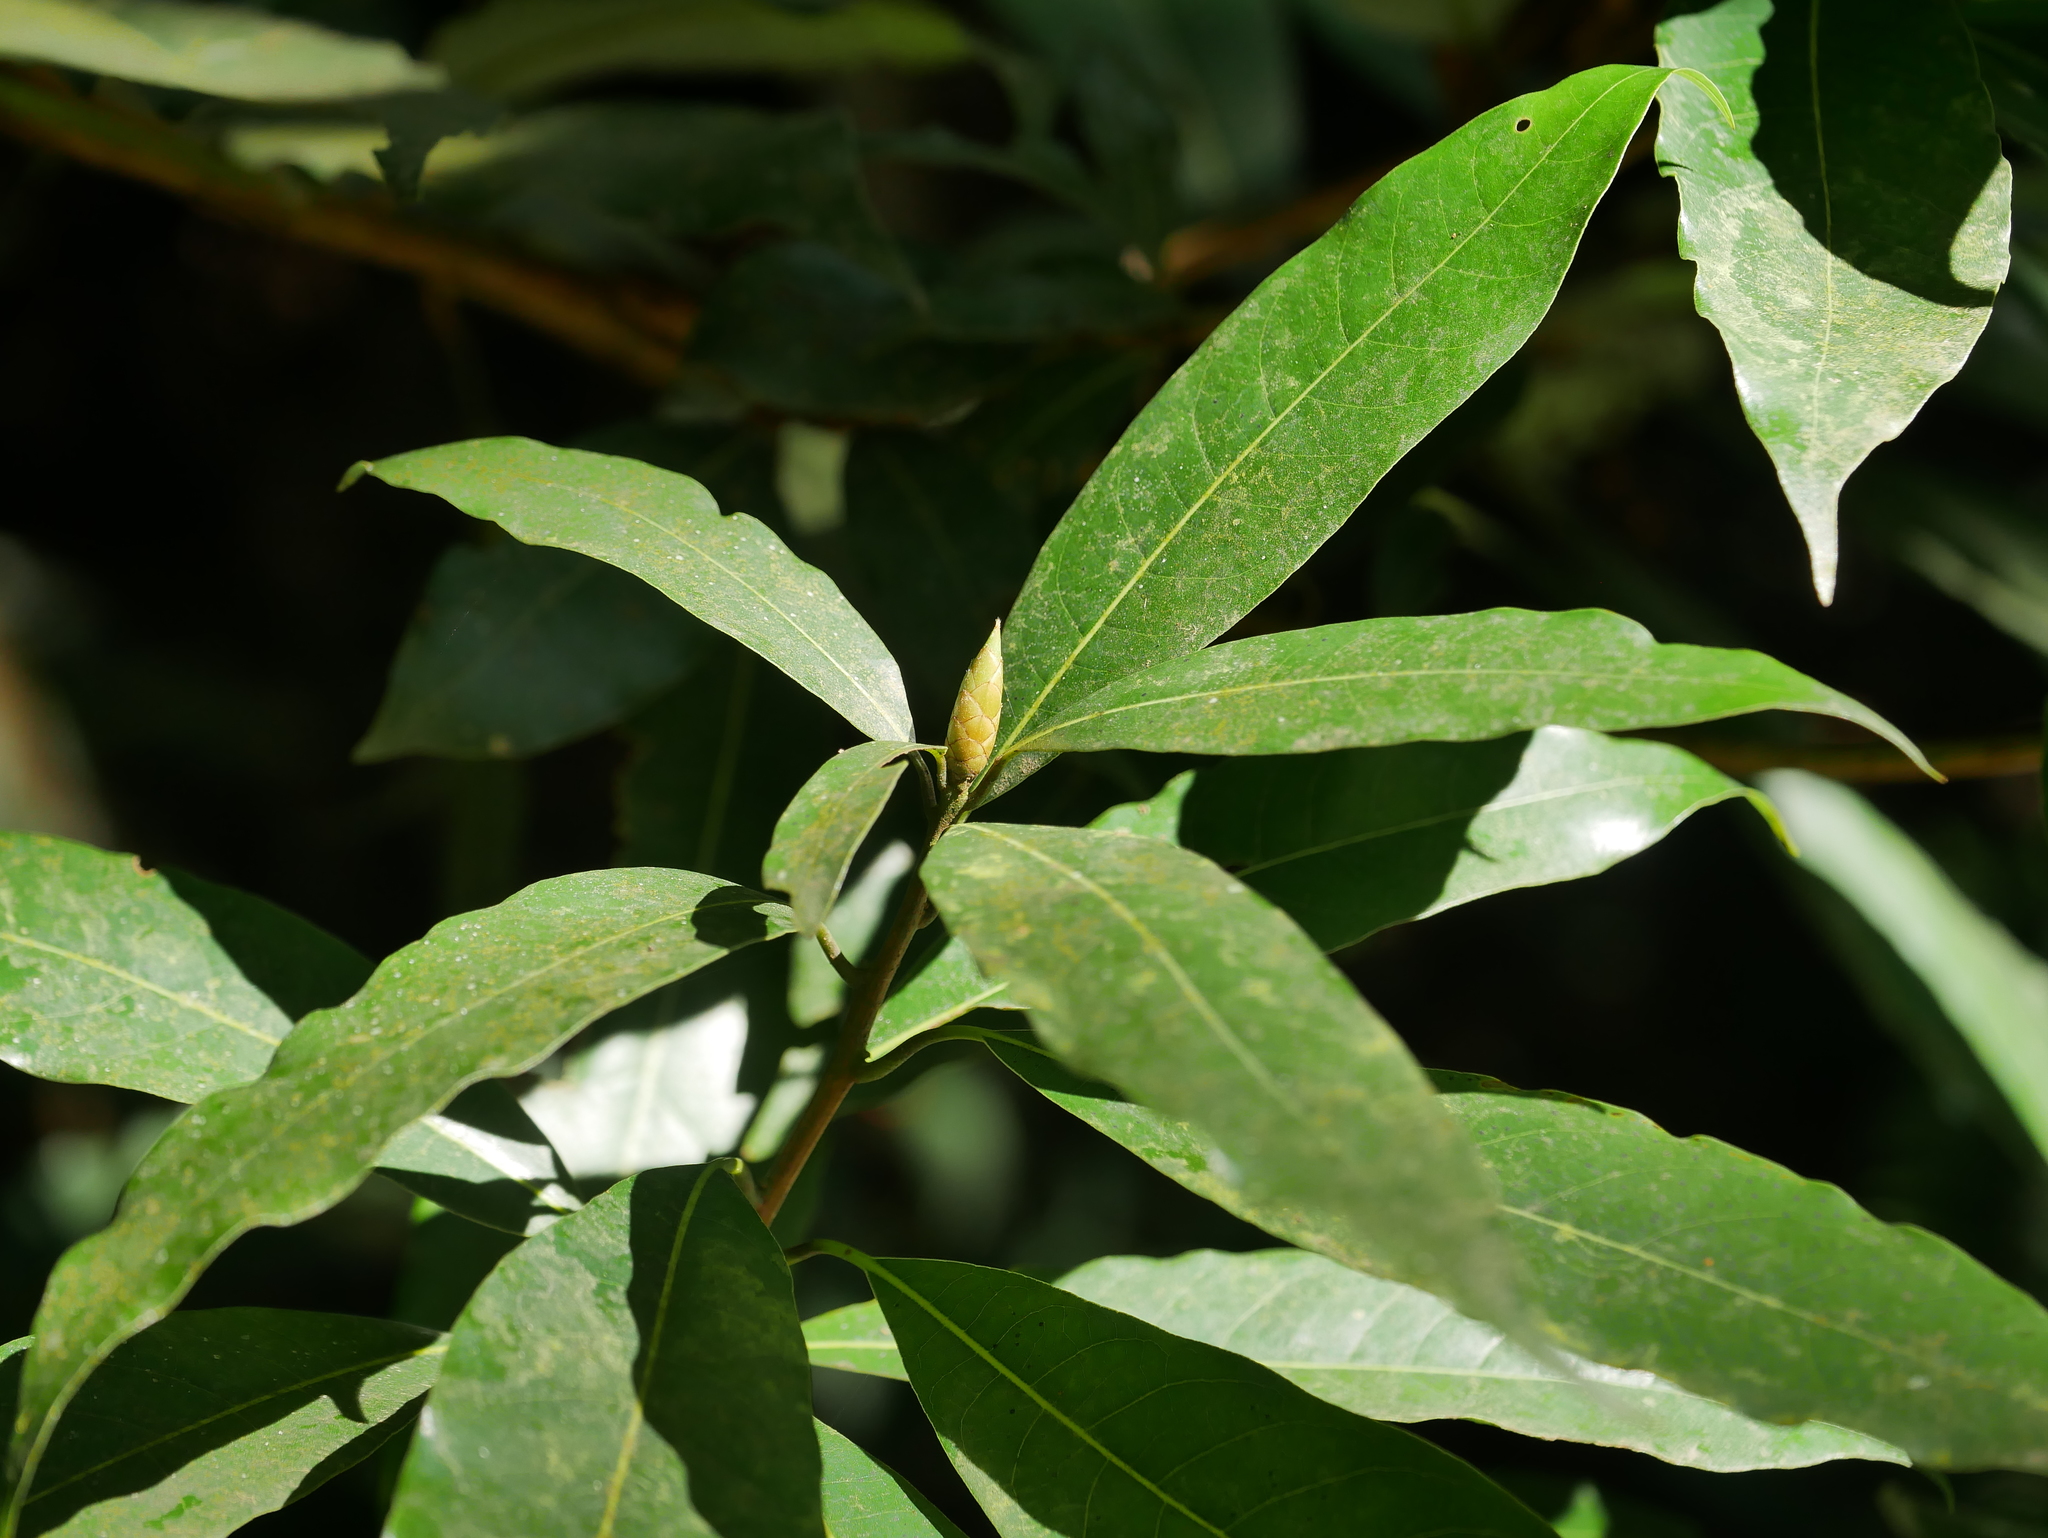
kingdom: Plantae
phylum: Tracheophyta
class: Magnoliopsida
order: Laurales
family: Lauraceae
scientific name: Lauraceae
